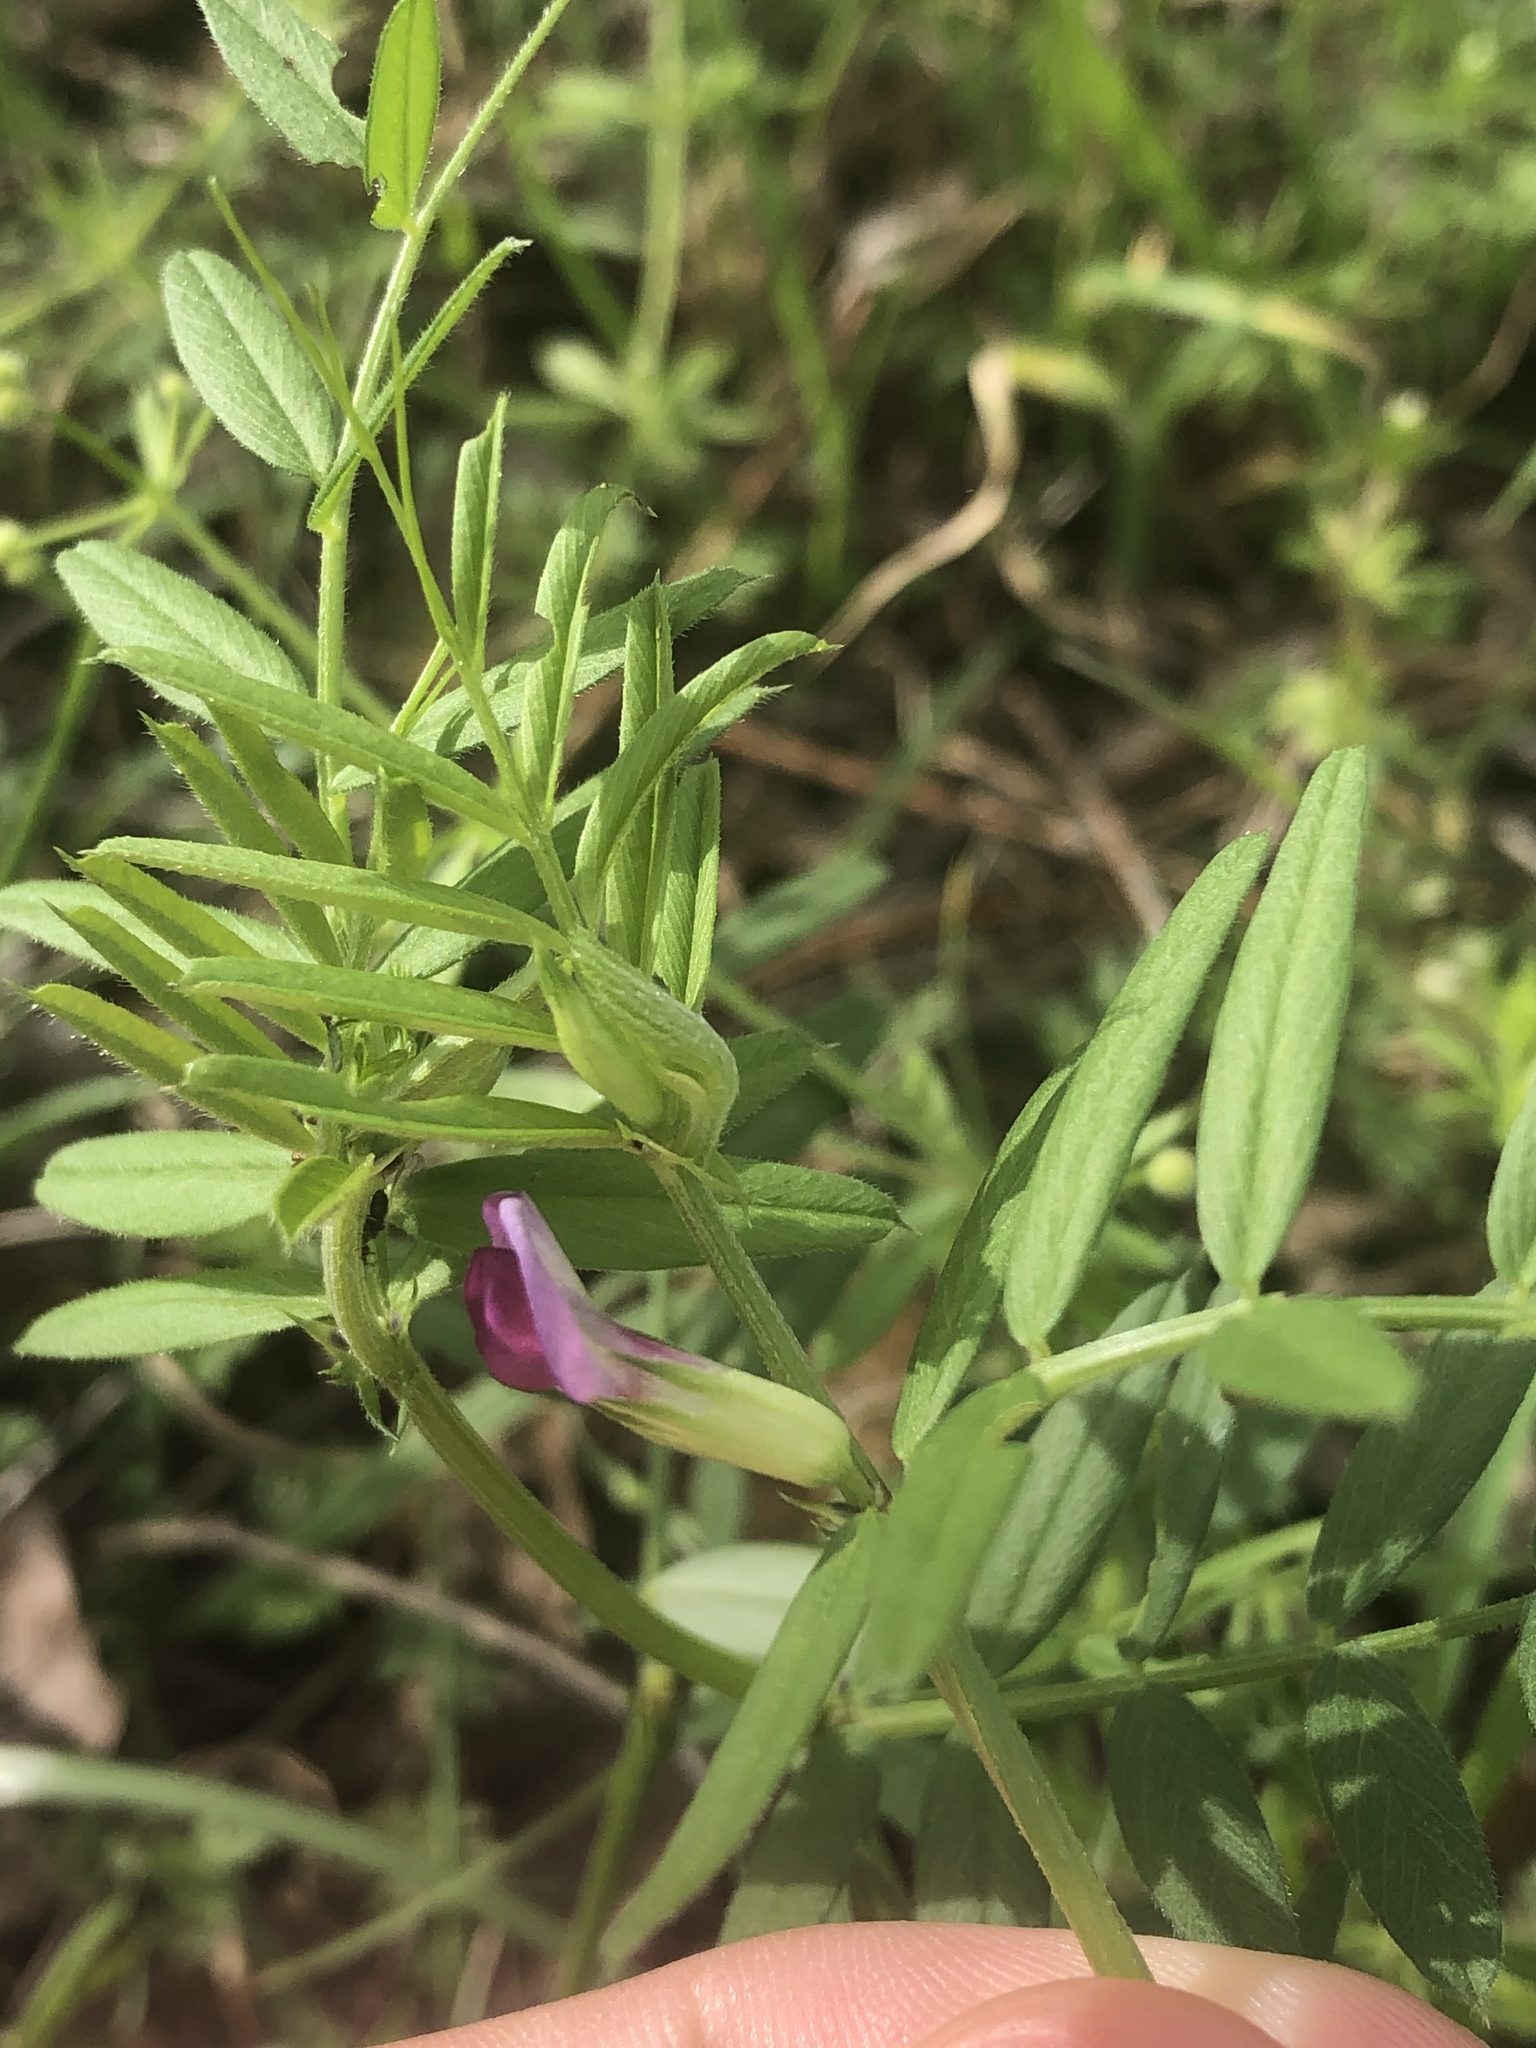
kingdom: Plantae
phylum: Tracheophyta
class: Magnoliopsida
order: Fabales
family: Fabaceae
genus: Vicia
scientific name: Vicia sativa
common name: Garden vetch
